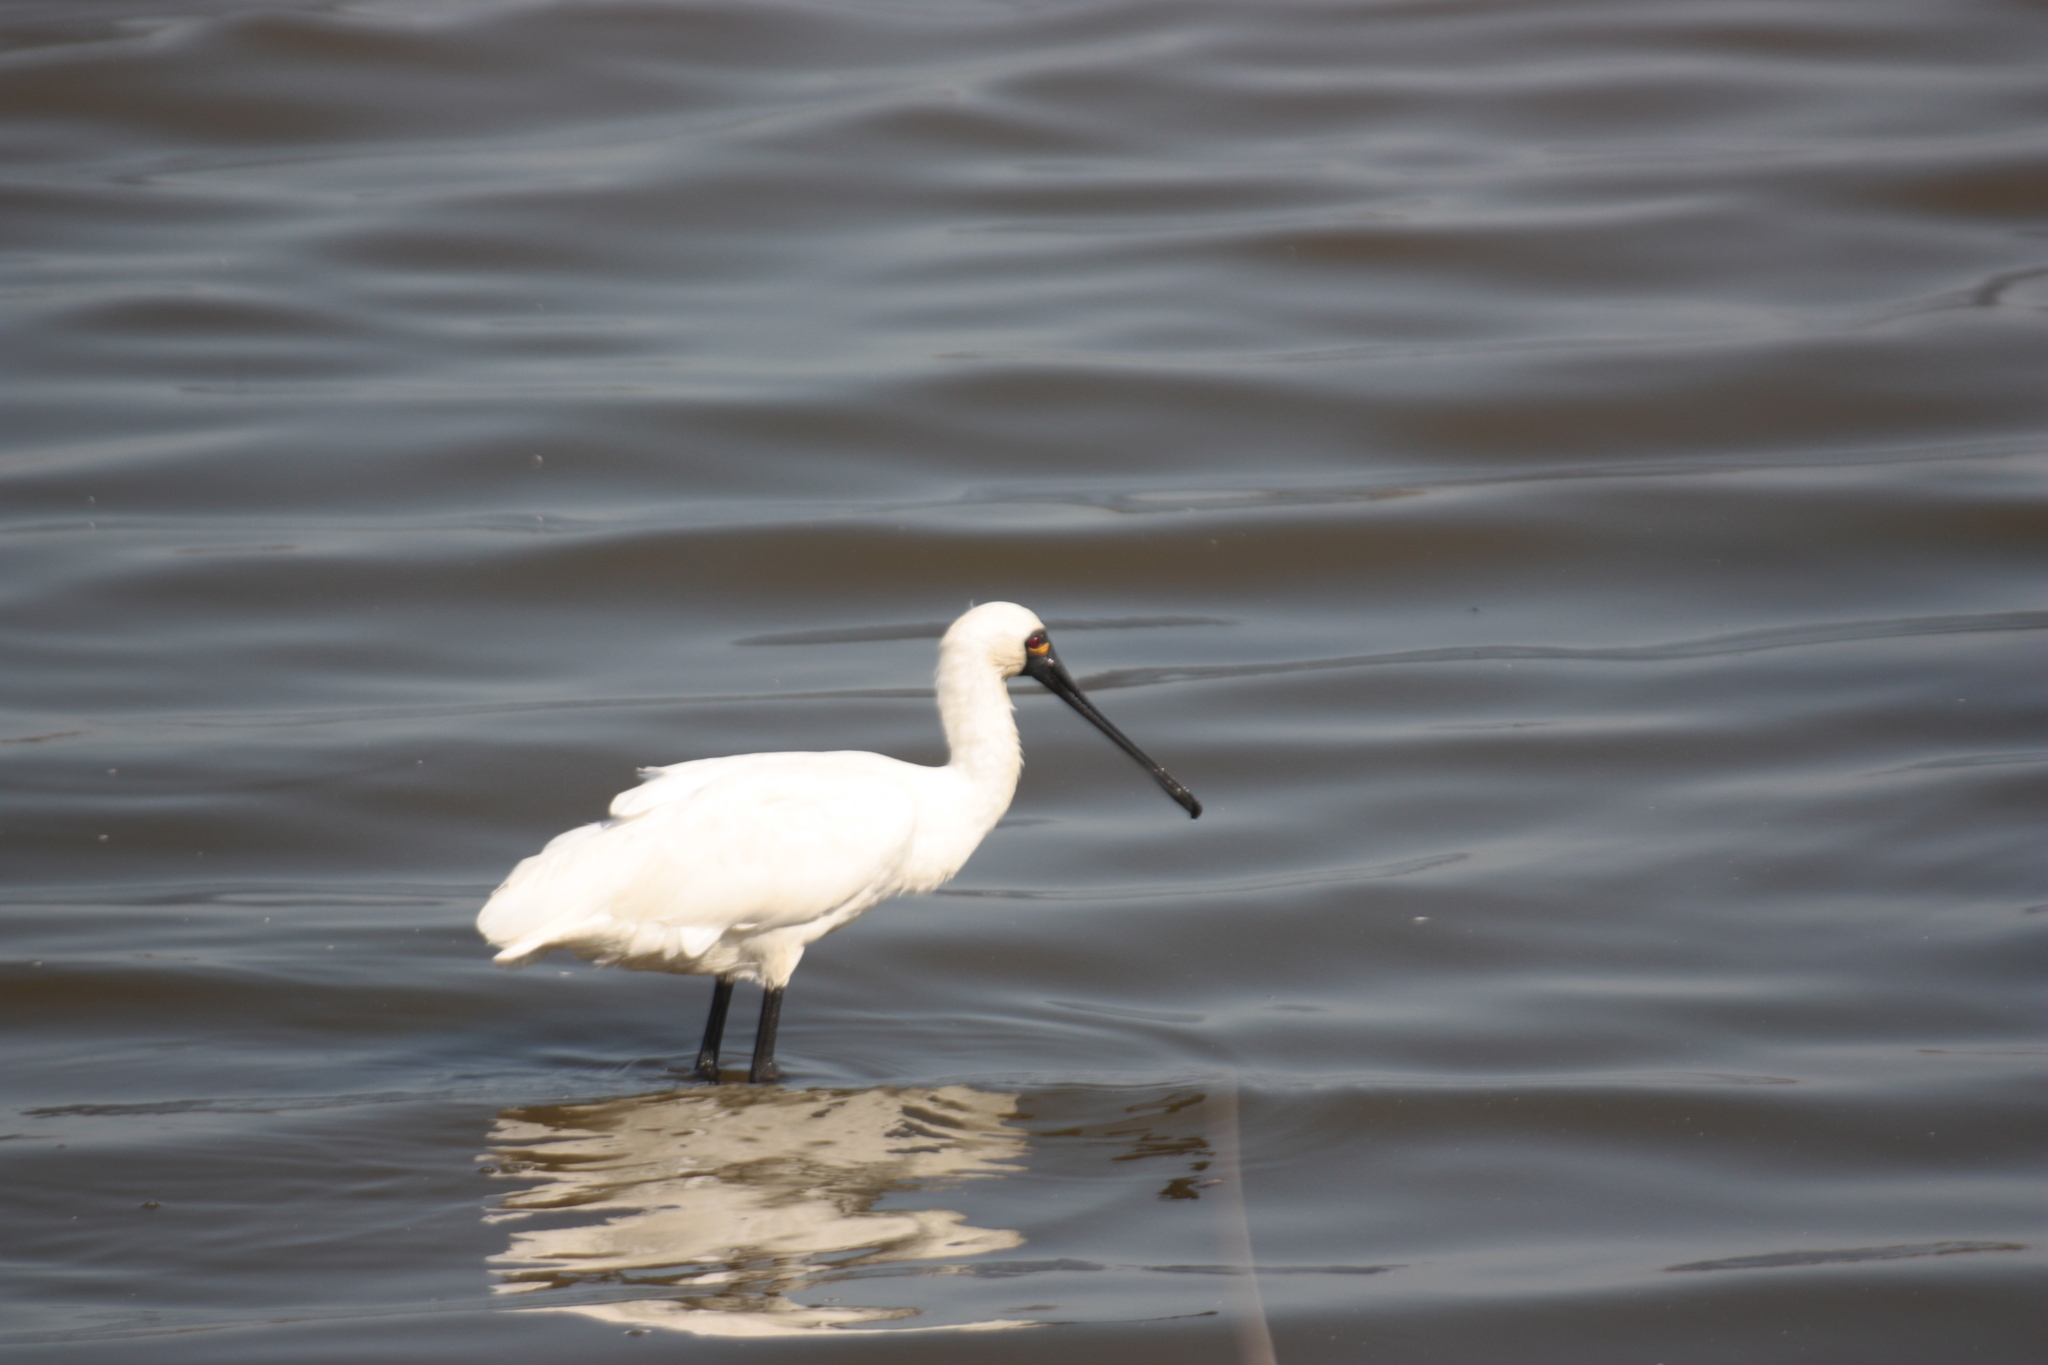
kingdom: Animalia
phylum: Chordata
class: Aves
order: Pelecaniformes
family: Threskiornithidae
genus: Platalea
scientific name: Platalea minor
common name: Black-faced spoonbill
